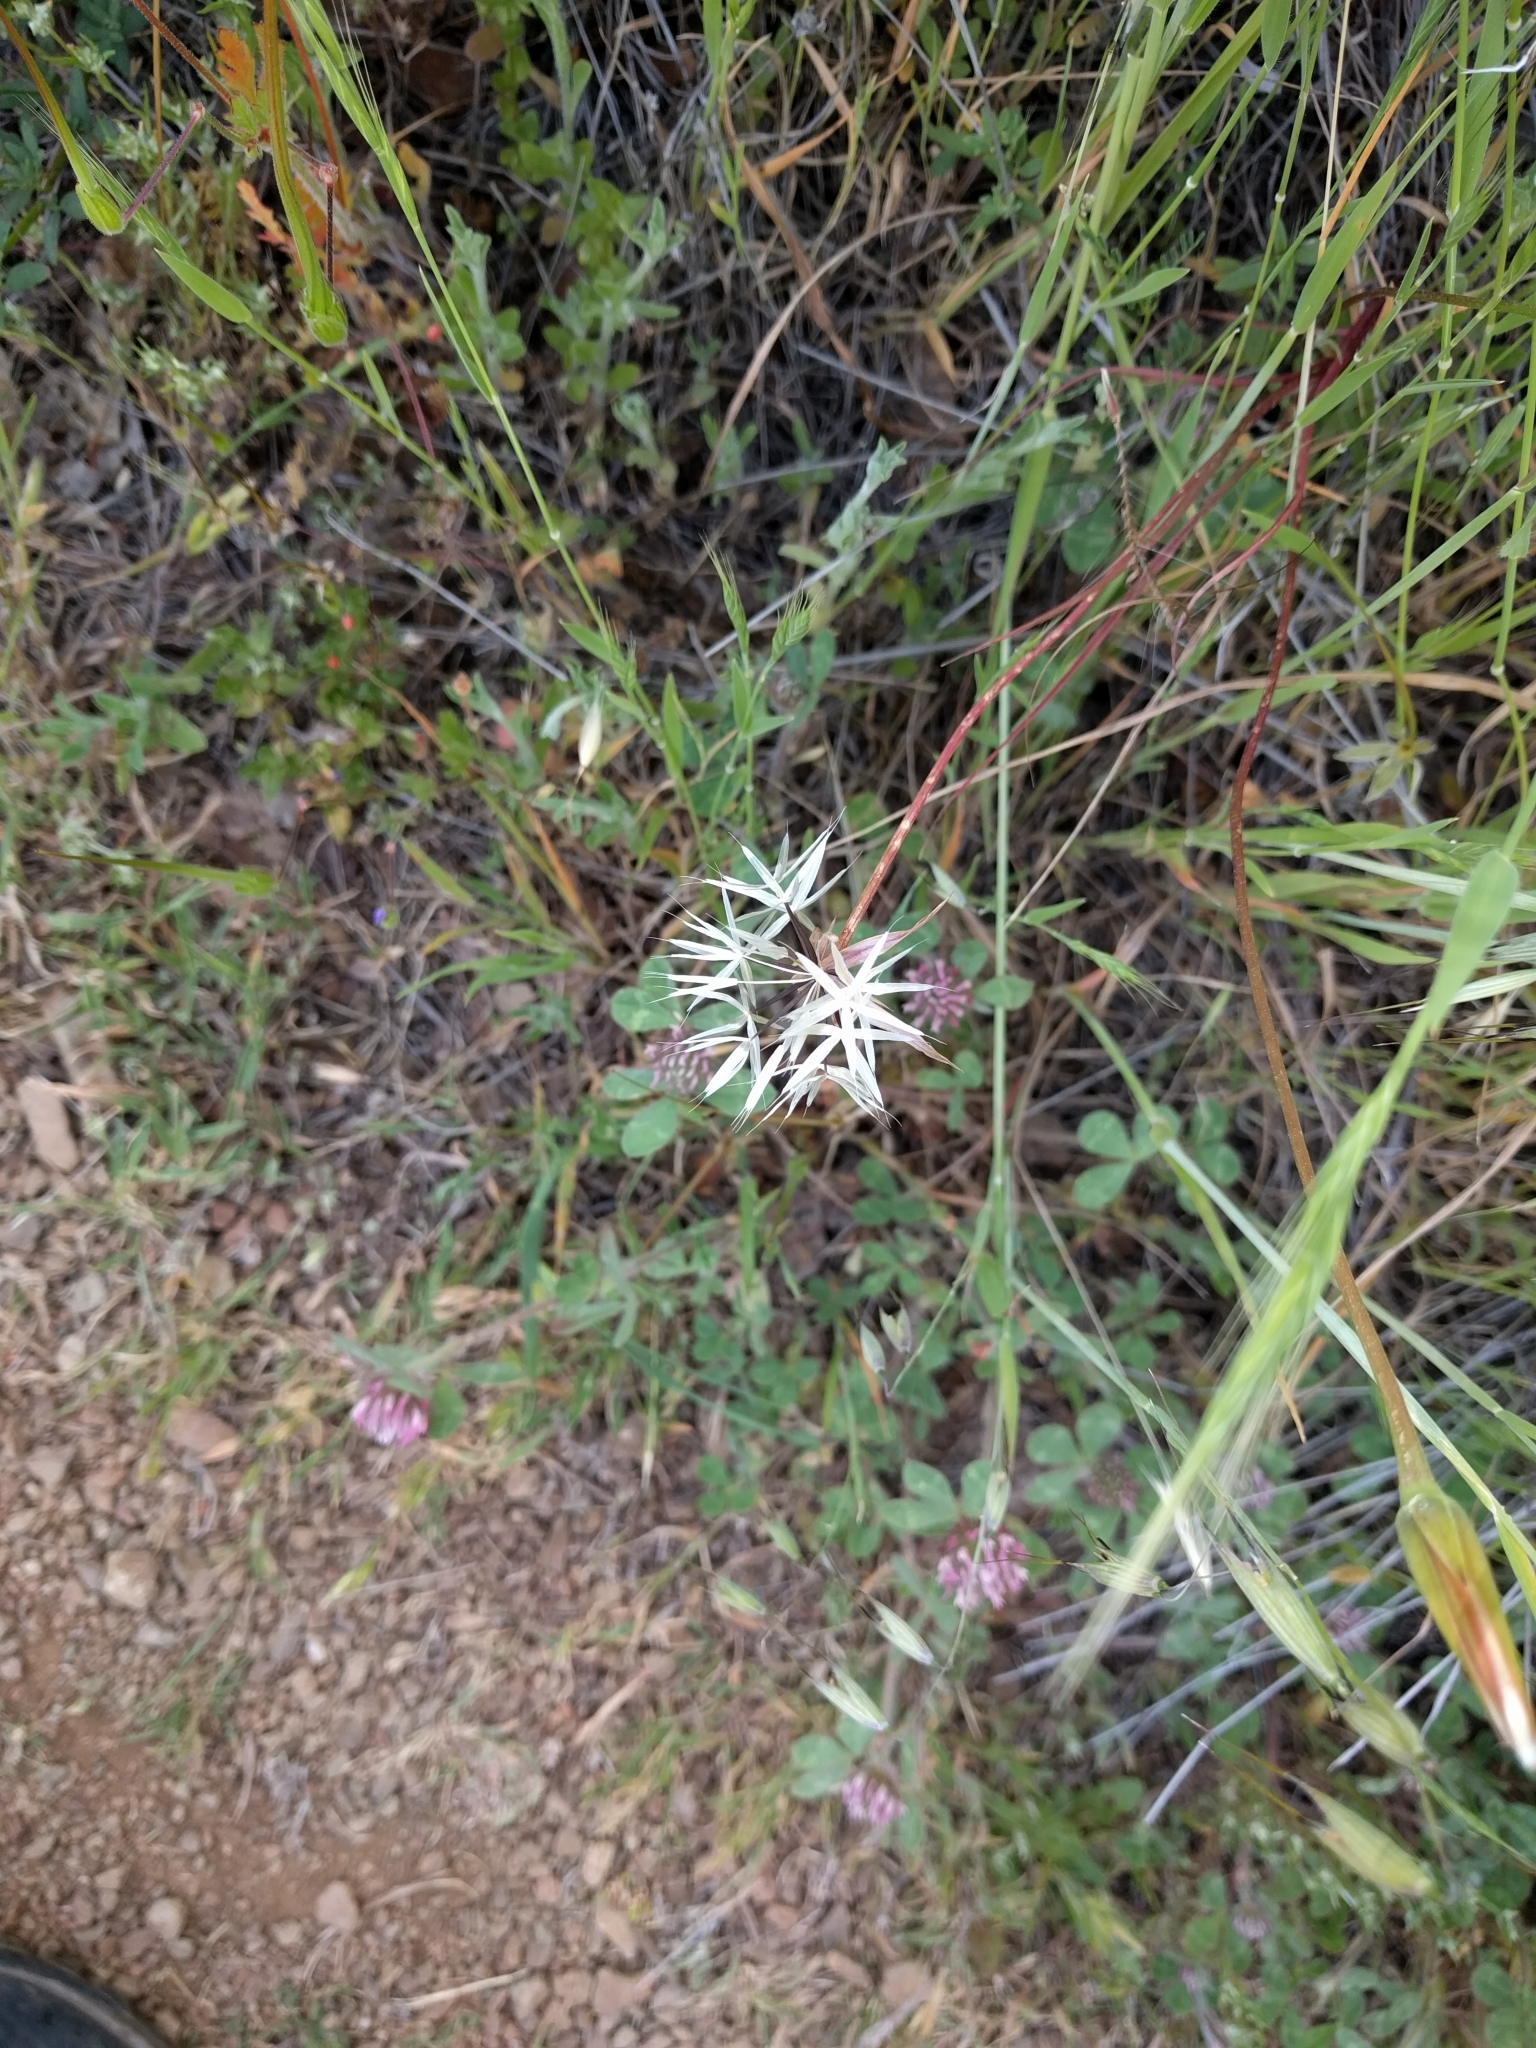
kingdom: Plantae
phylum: Tracheophyta
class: Magnoliopsida
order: Asterales
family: Asteraceae
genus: Microseris
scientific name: Microseris lindleyi
